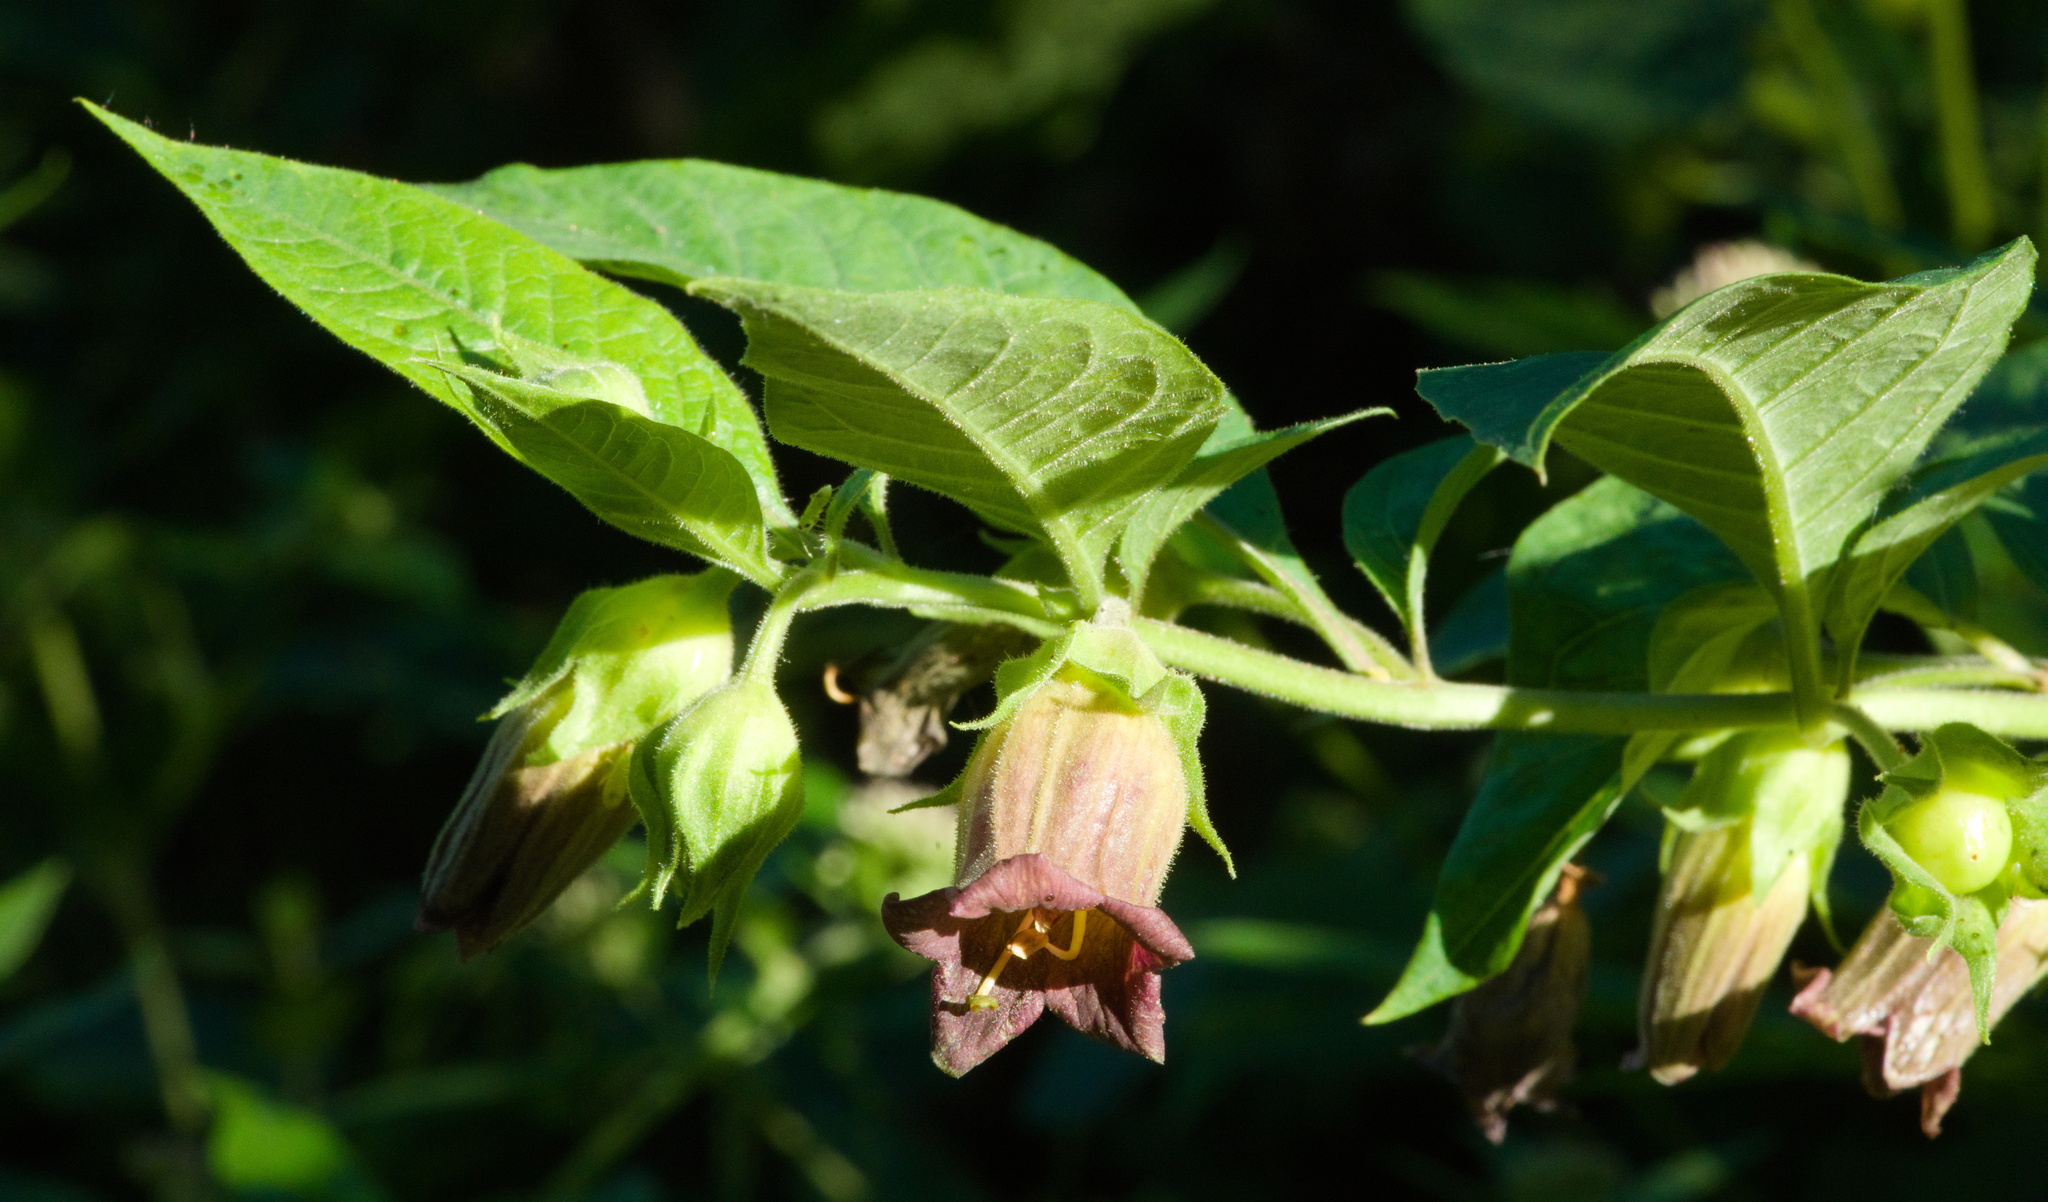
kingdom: Plantae
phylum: Tracheophyta
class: Magnoliopsida
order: Solanales
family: Solanaceae
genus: Atropa
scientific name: Atropa belladonna
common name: Deadly nightshade
